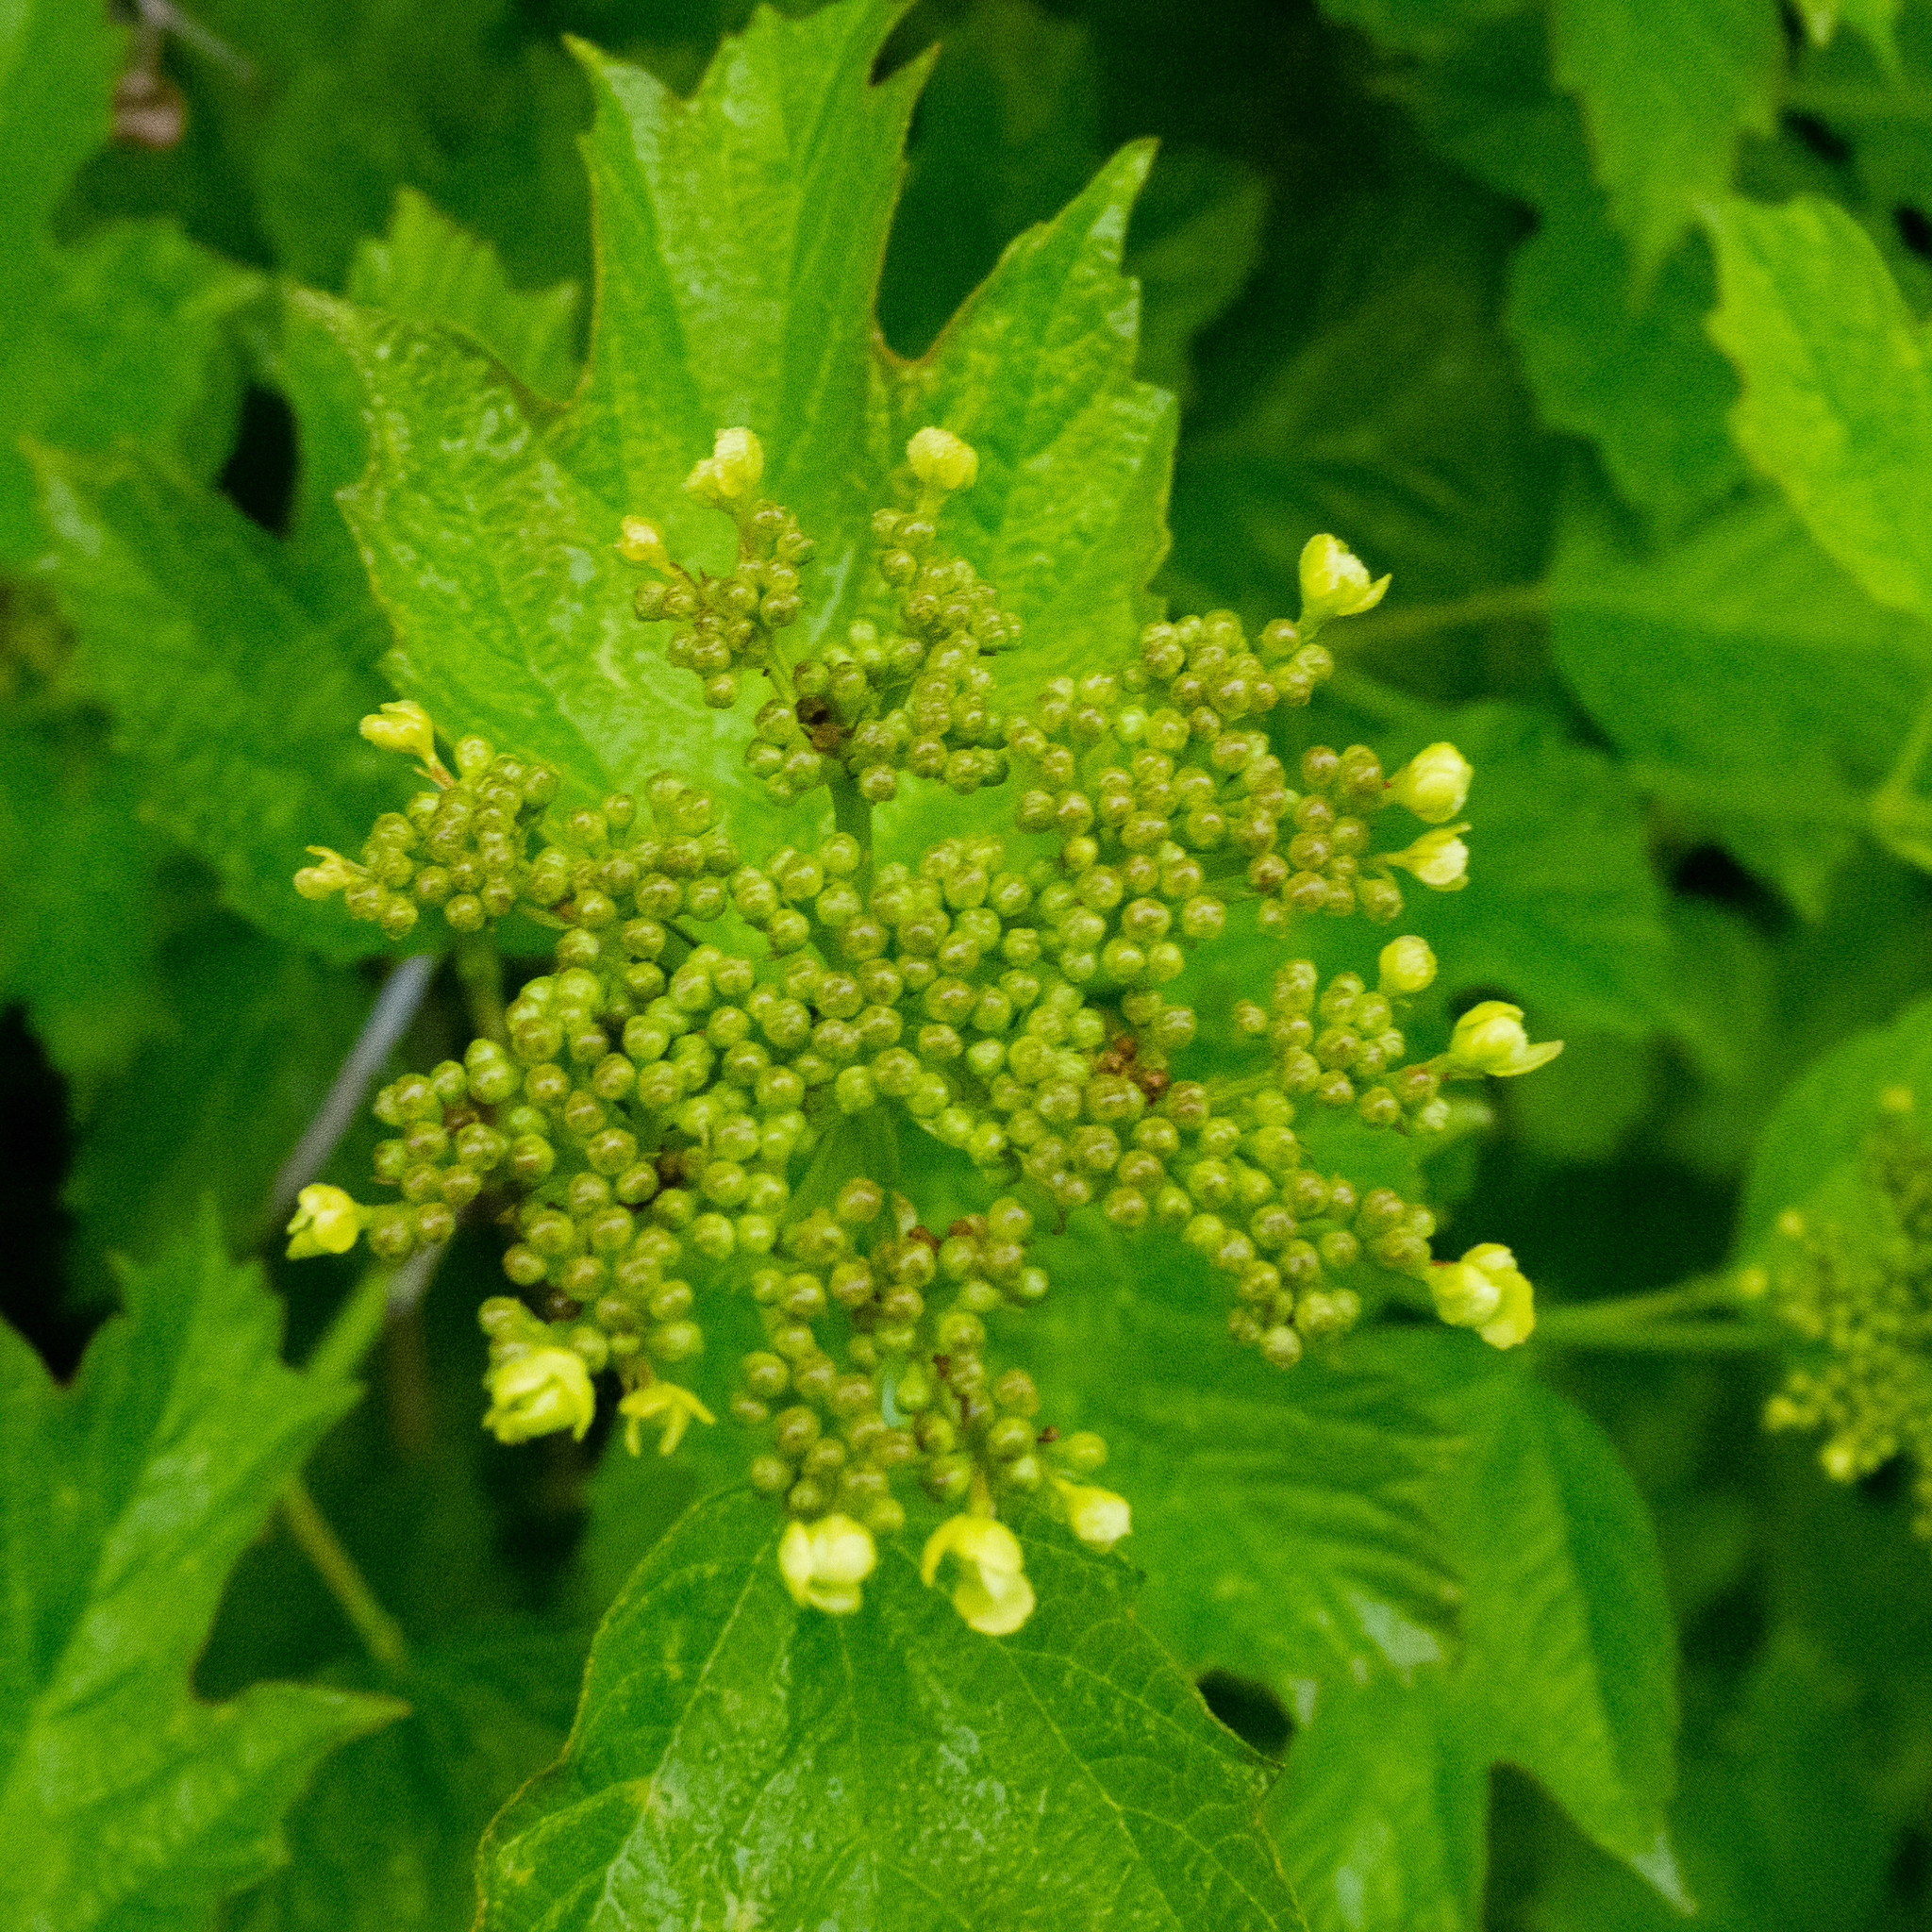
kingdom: Plantae
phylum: Tracheophyta
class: Magnoliopsida
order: Dipsacales
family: Viburnaceae
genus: Viburnum
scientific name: Viburnum opulus
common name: Guelder-rose
